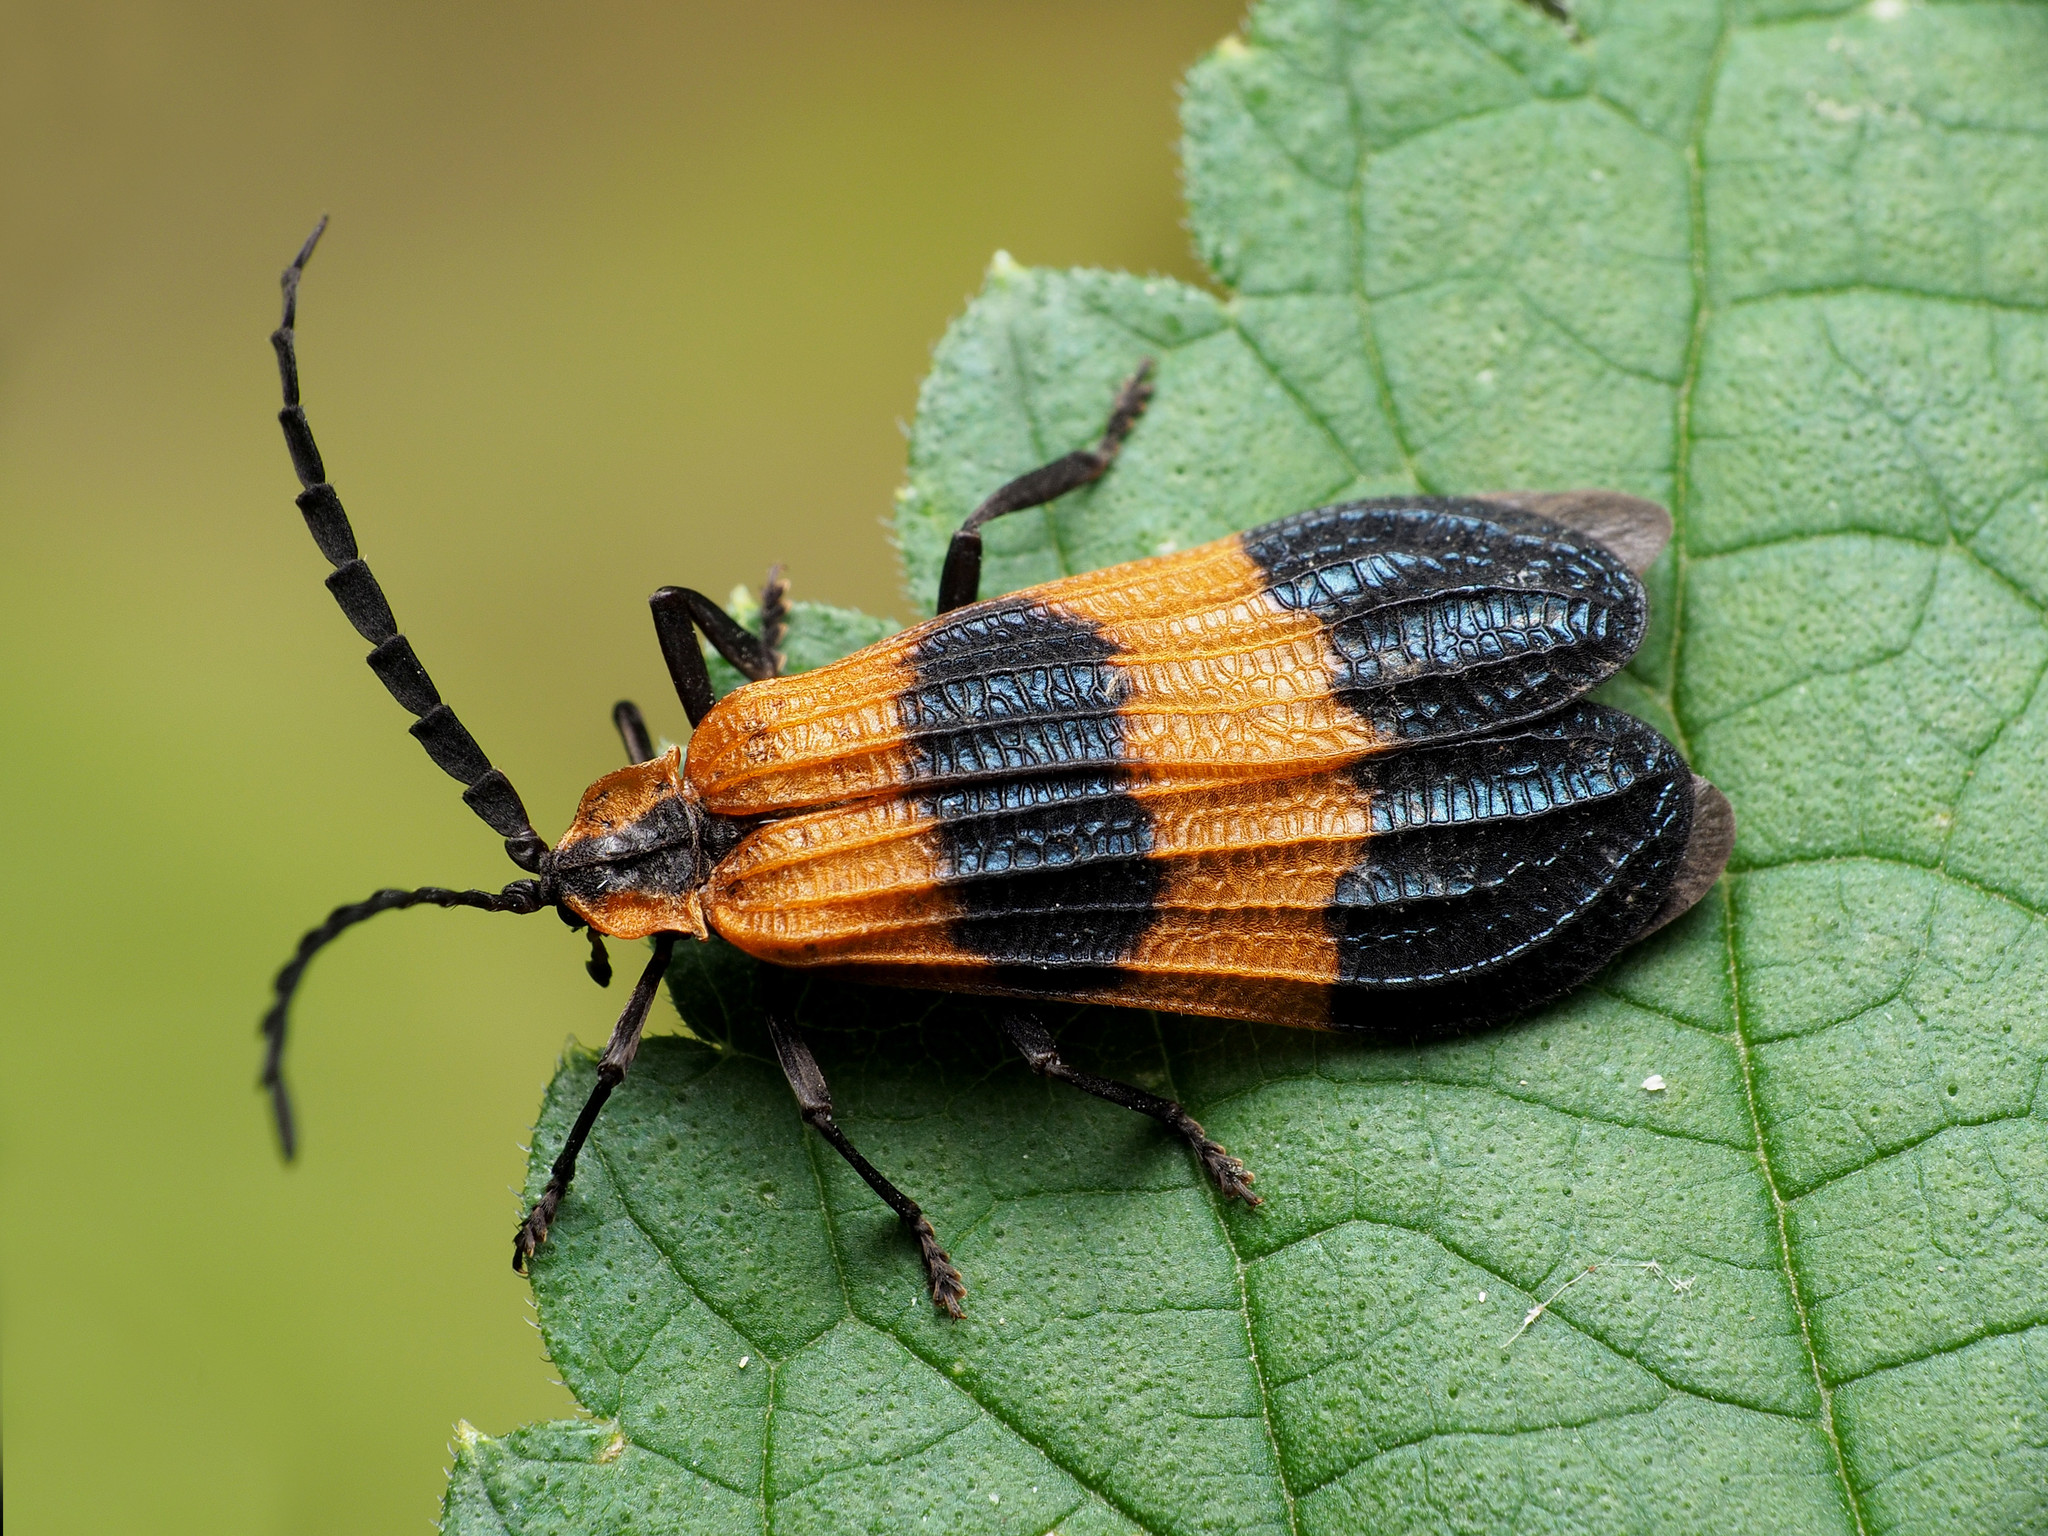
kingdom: Animalia
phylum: Arthropoda
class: Insecta
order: Coleoptera
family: Lycidae
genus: Calopteron
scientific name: Calopteron terminale
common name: End band net-winged beetle
